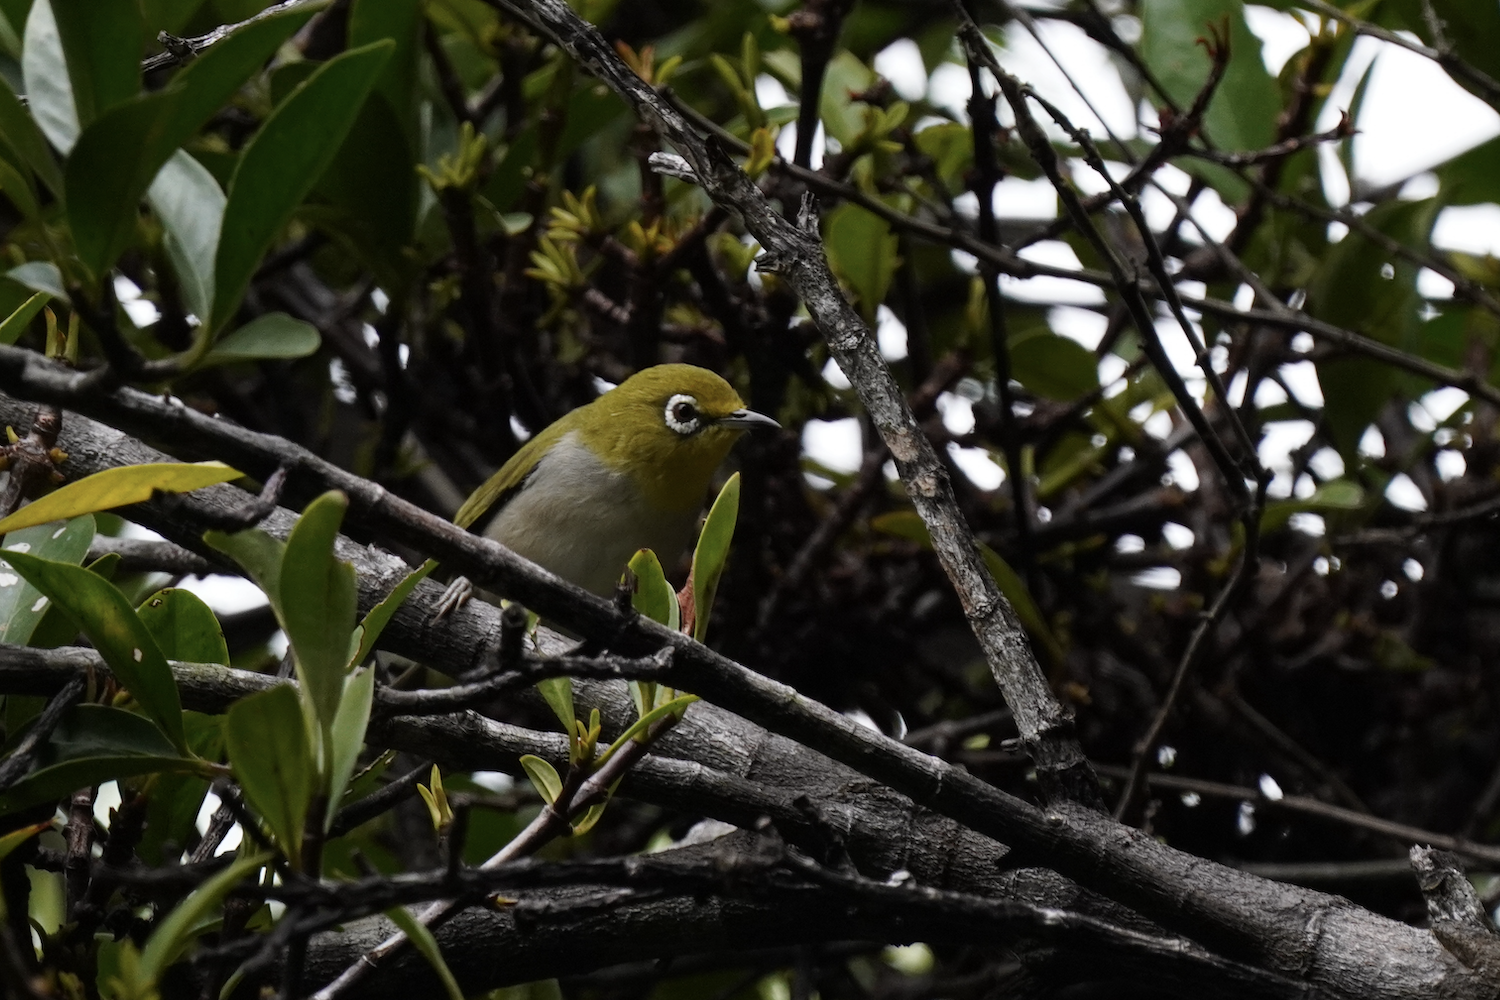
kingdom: Animalia
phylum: Chordata
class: Aves
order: Passeriformes
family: Zosteropidae
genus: Zosterops
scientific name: Zosterops simplex
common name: Swinhoe's white-eye
